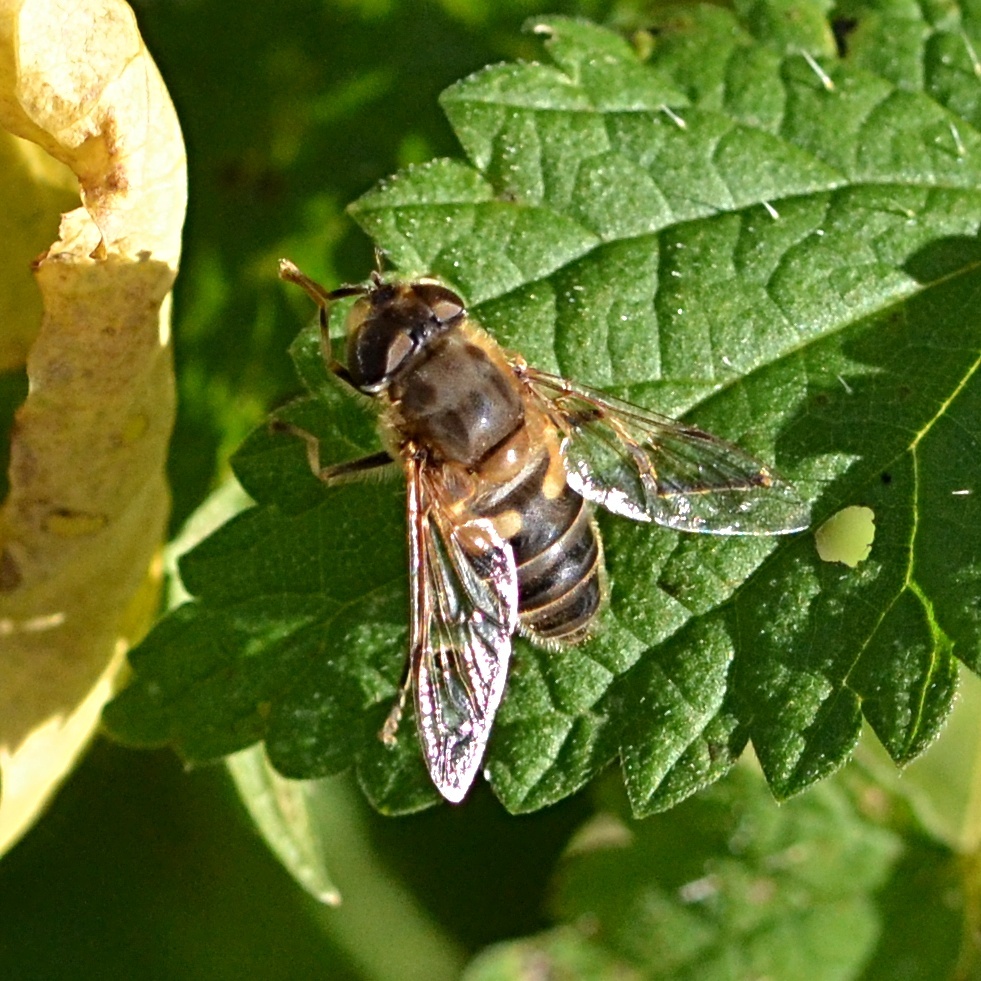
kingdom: Animalia
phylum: Arthropoda
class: Insecta
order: Diptera
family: Syrphidae
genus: Eristalis
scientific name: Eristalis pertinax
